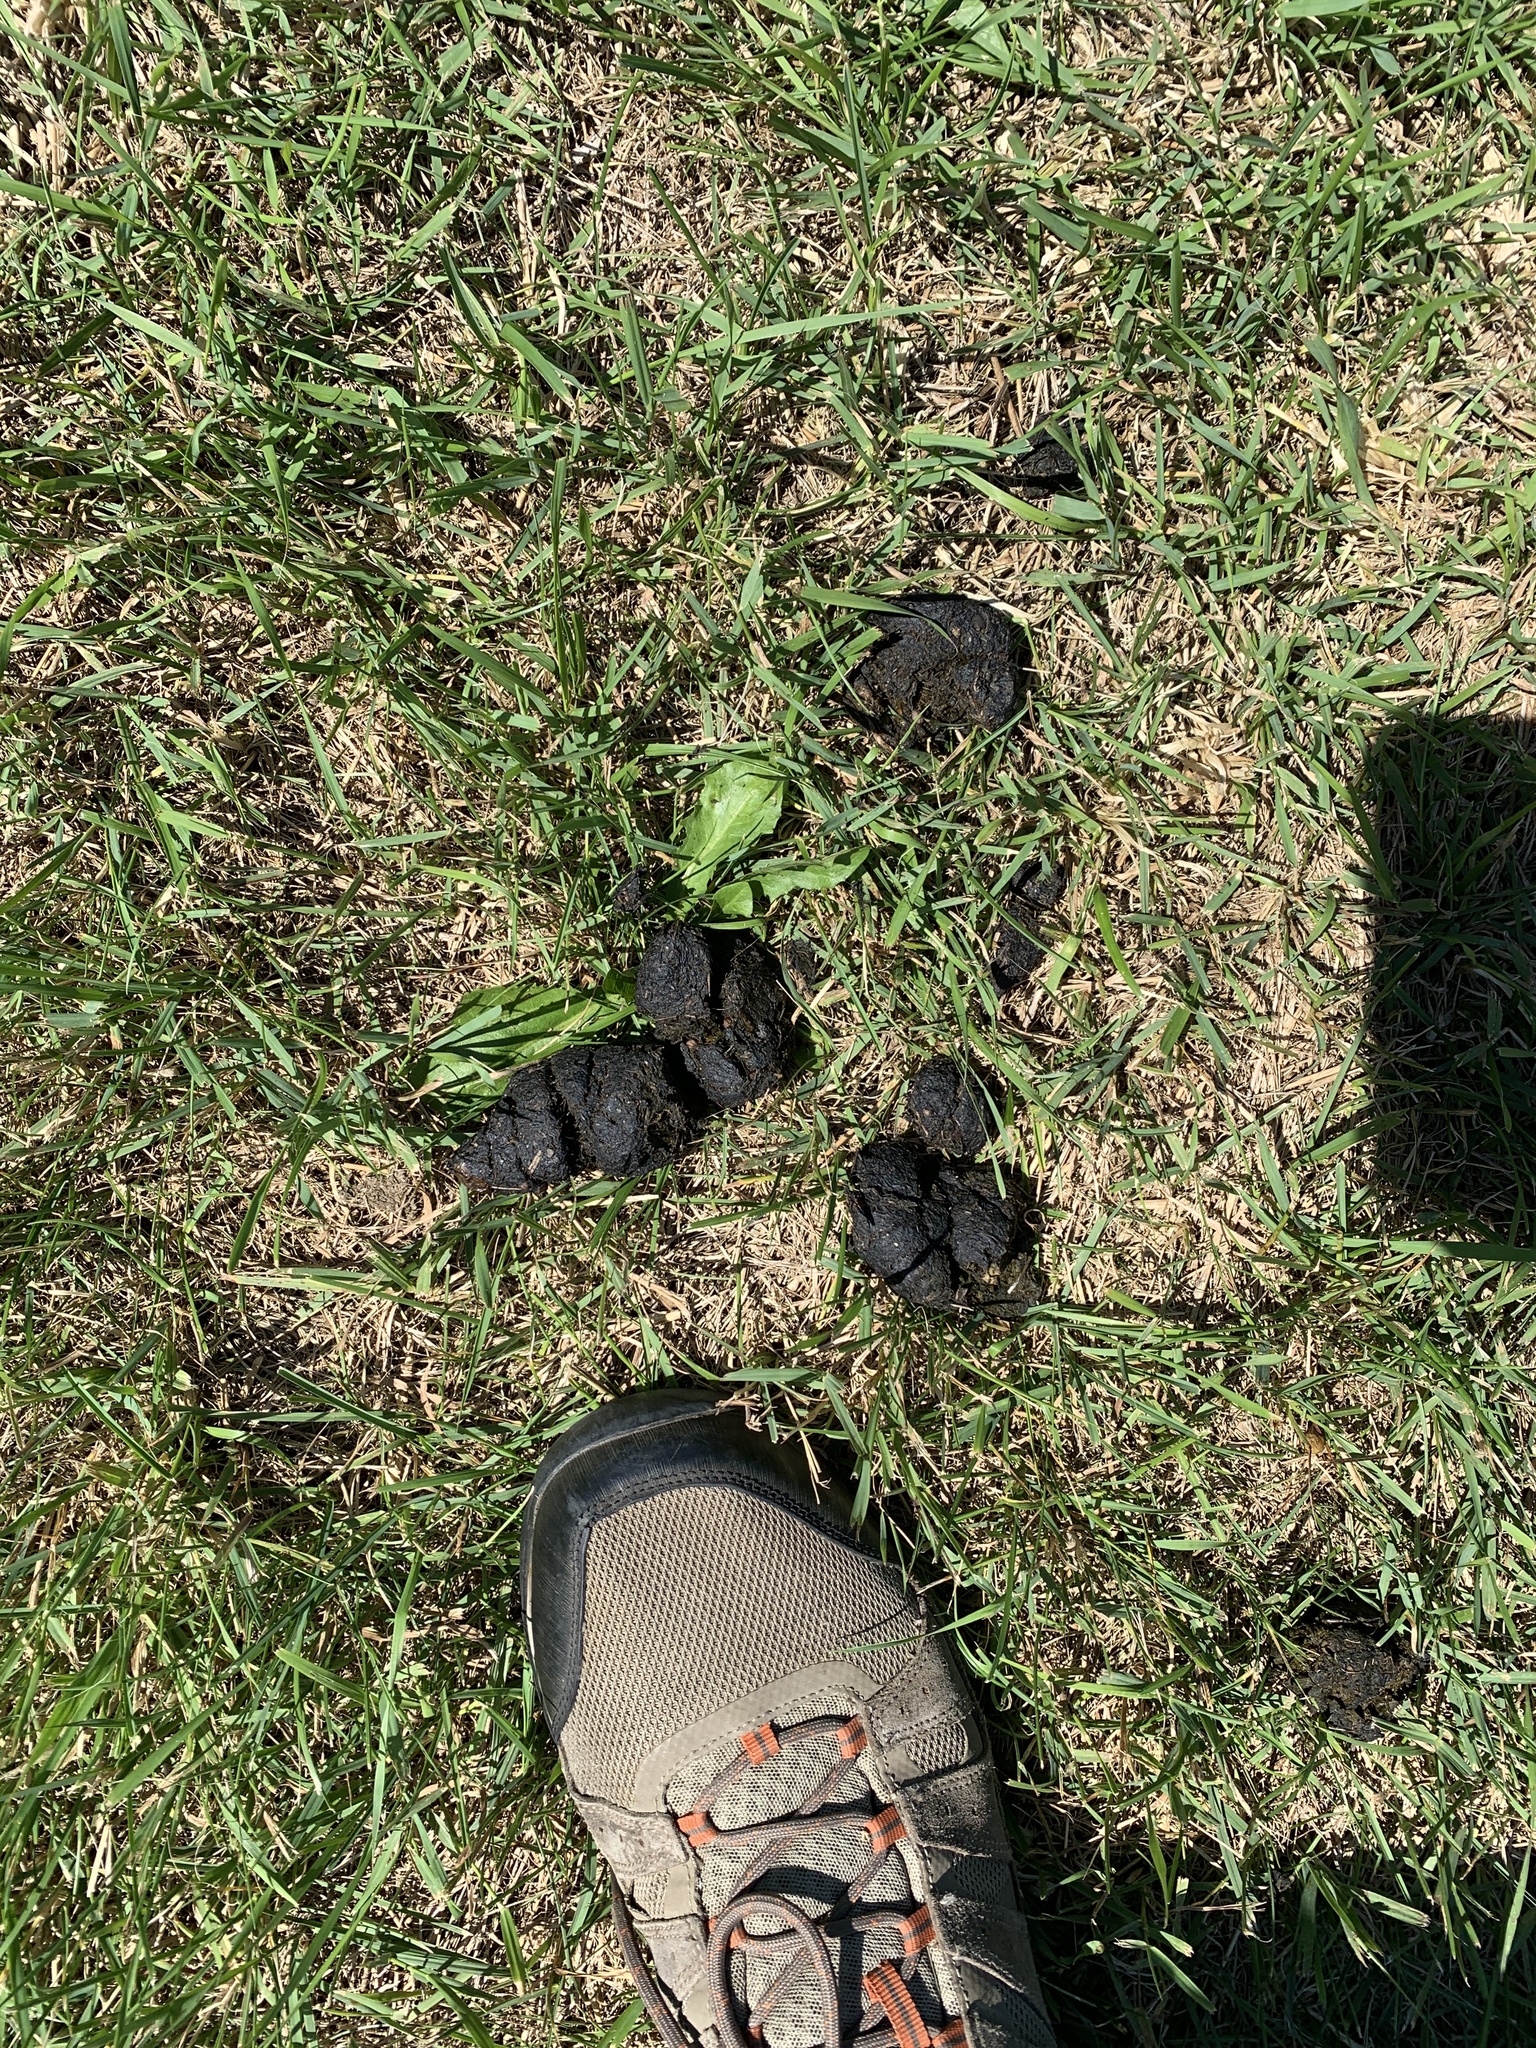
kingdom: Animalia
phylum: Chordata
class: Mammalia
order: Carnivora
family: Ursidae
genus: Ursus
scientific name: Ursus americanus
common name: American black bear
